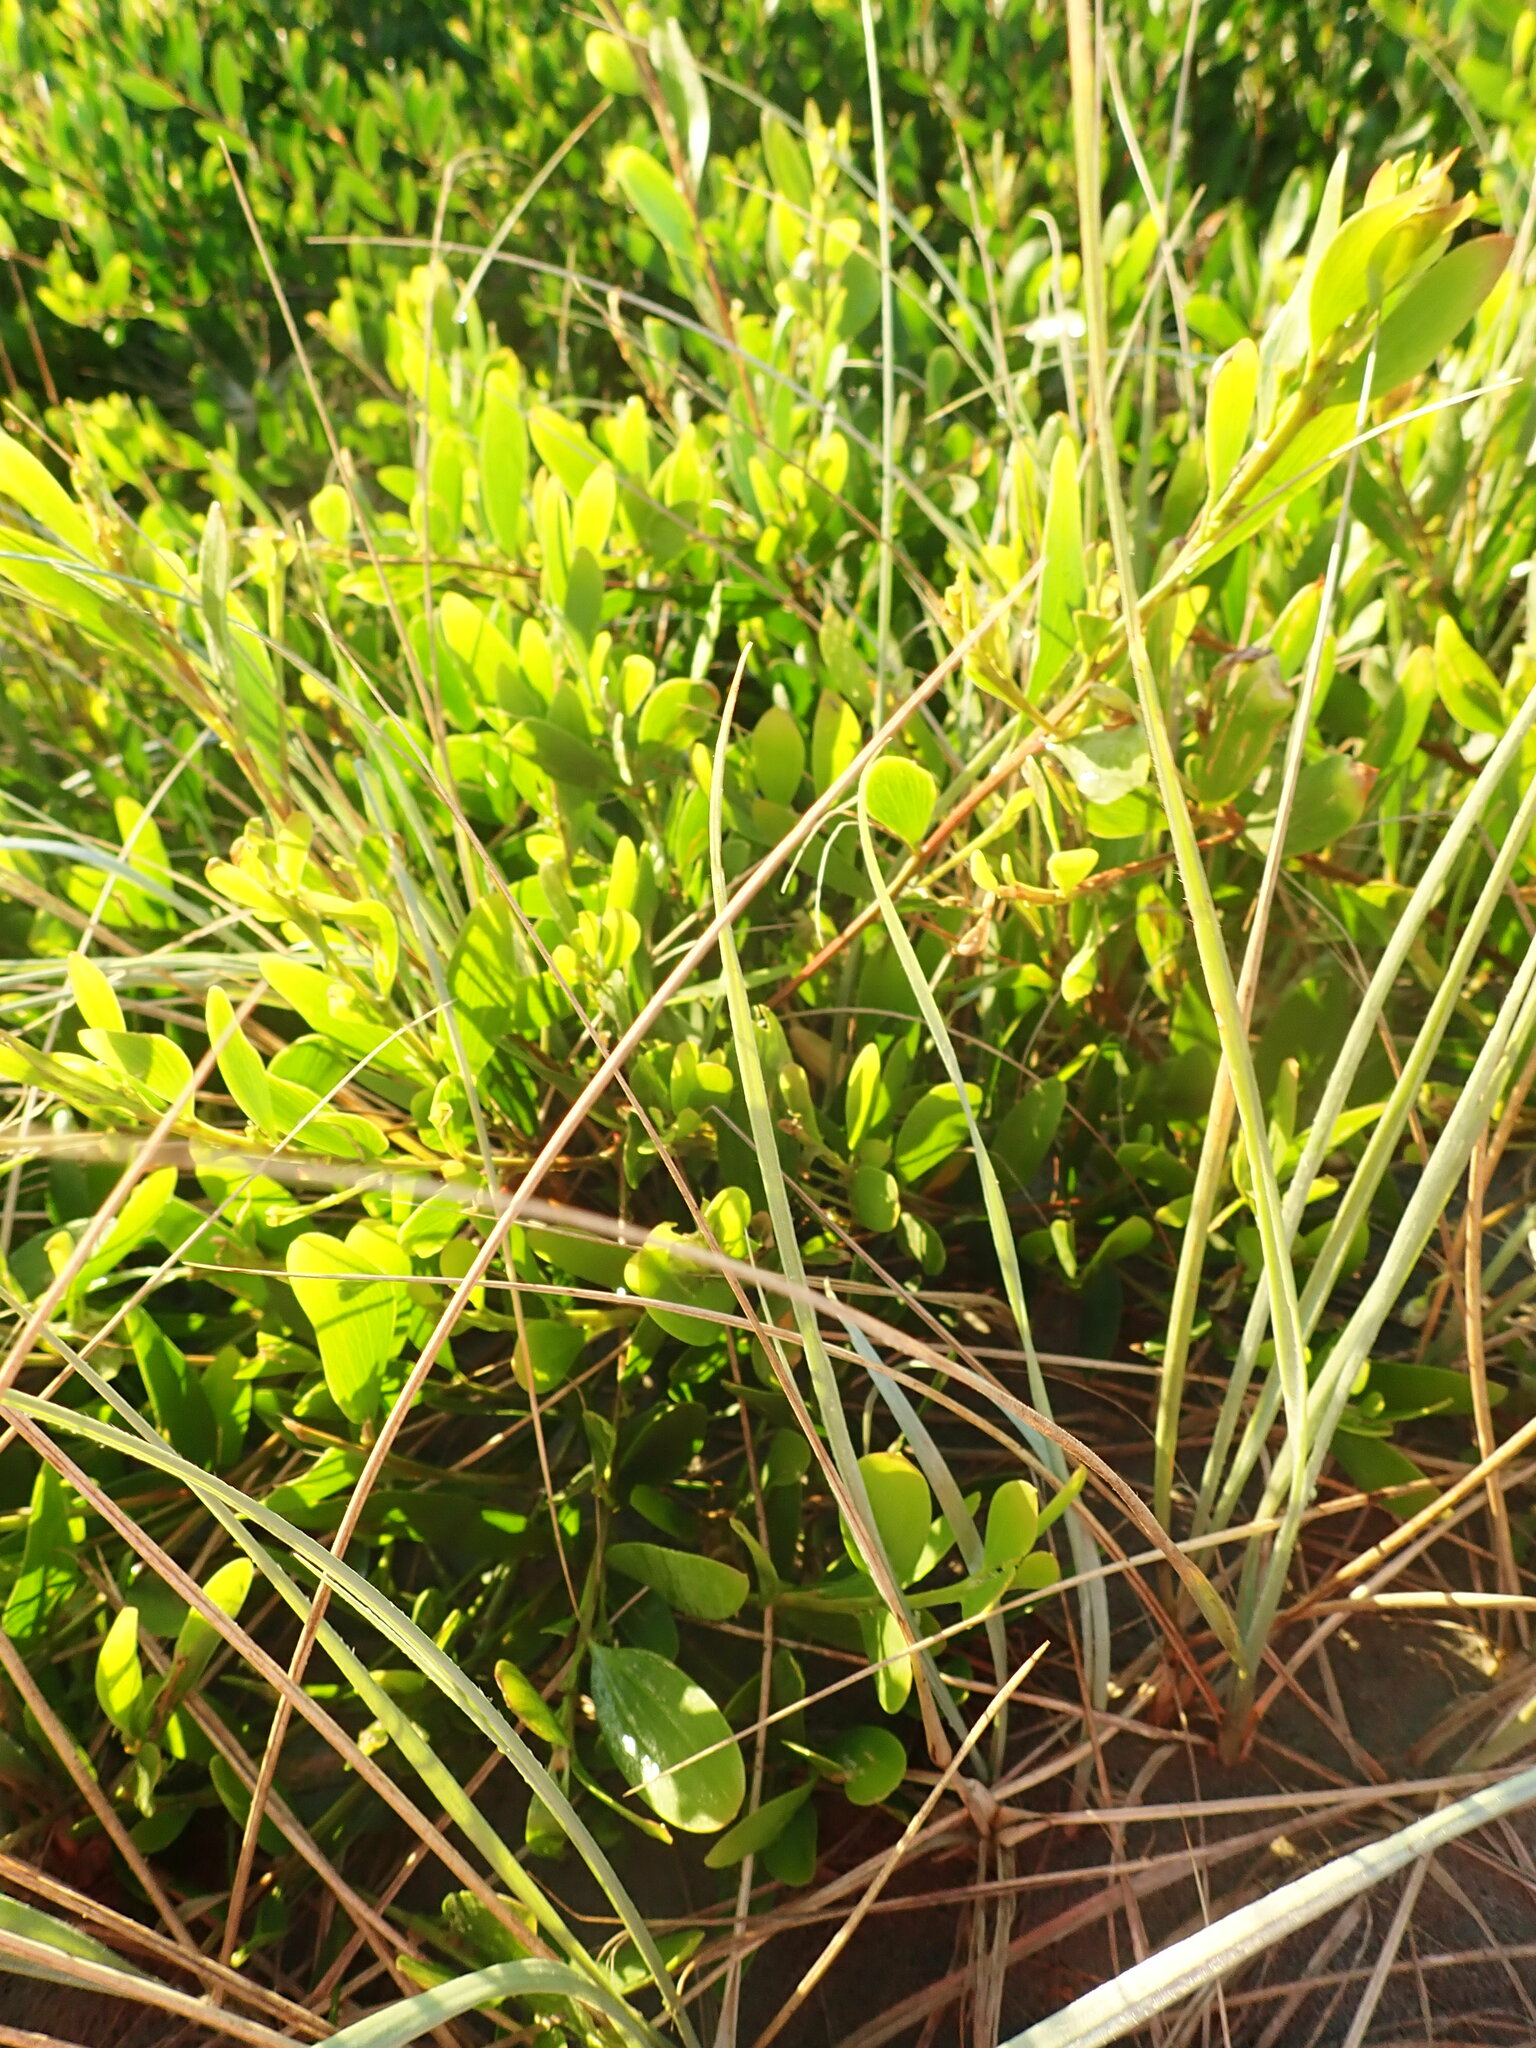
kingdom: Plantae
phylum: Tracheophyta
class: Magnoliopsida
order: Fabales
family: Fabaceae
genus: Acacia
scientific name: Acacia longifolia
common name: Sydney golden wattle
